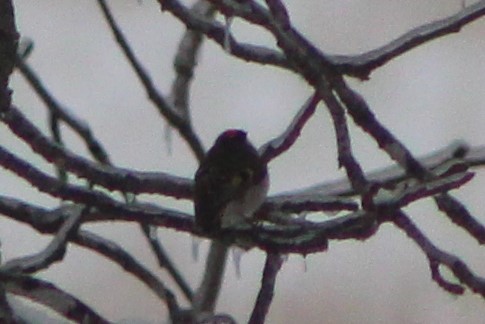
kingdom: Animalia
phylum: Chordata
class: Aves
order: Passeriformes
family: Regulidae
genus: Regulus
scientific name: Regulus satrapa
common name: Golden-crowned kinglet
